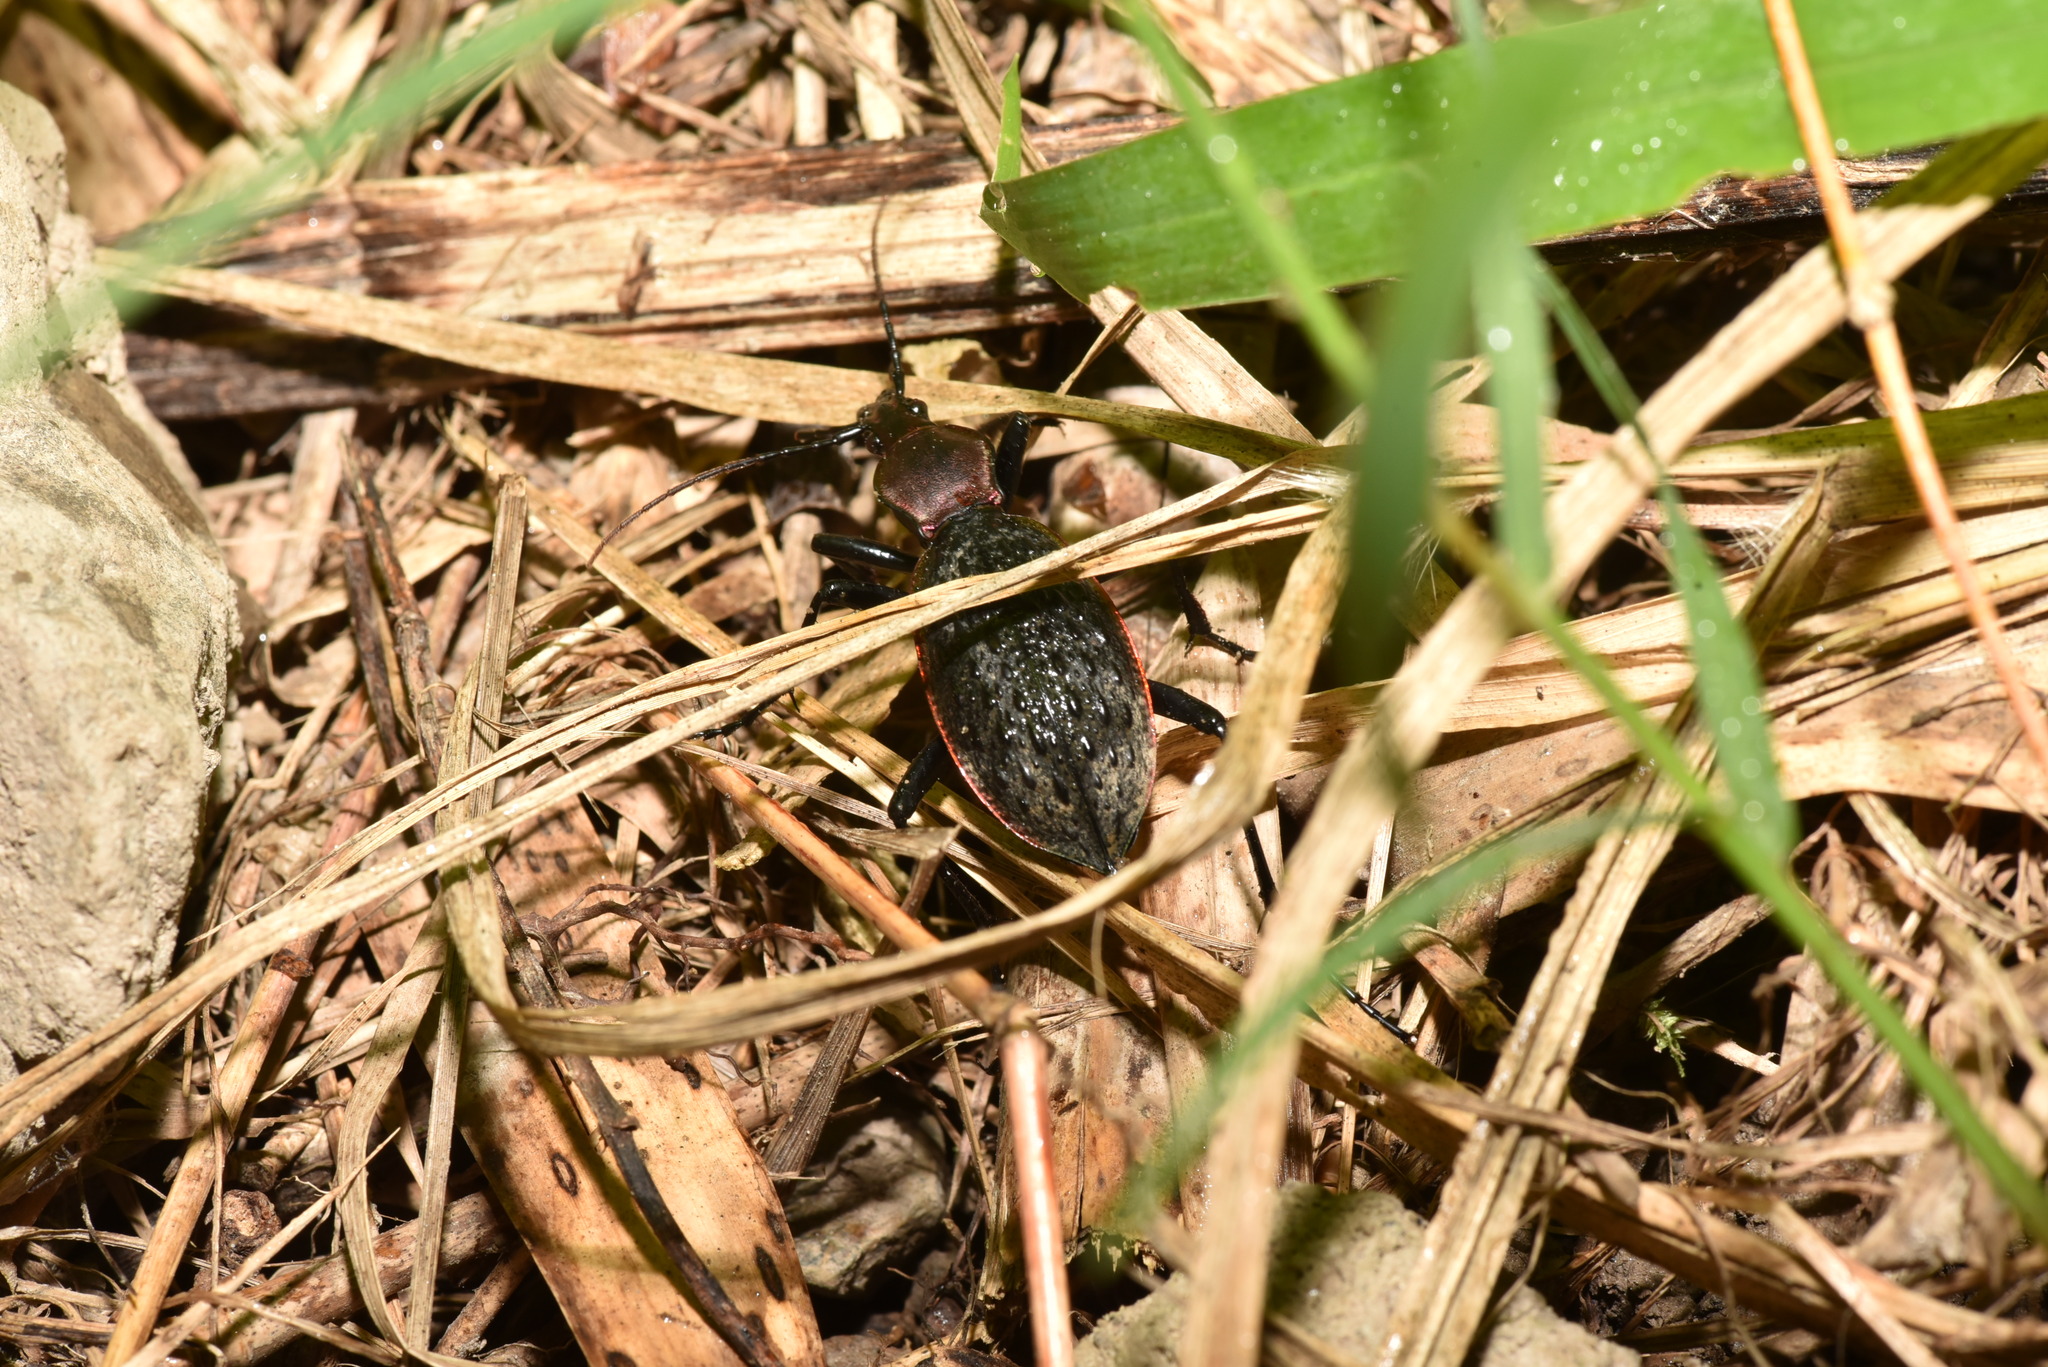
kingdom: Animalia
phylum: Arthropoda
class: Insecta
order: Coleoptera
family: Carabidae
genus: Carabus
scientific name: Carabus nankotaizanus
